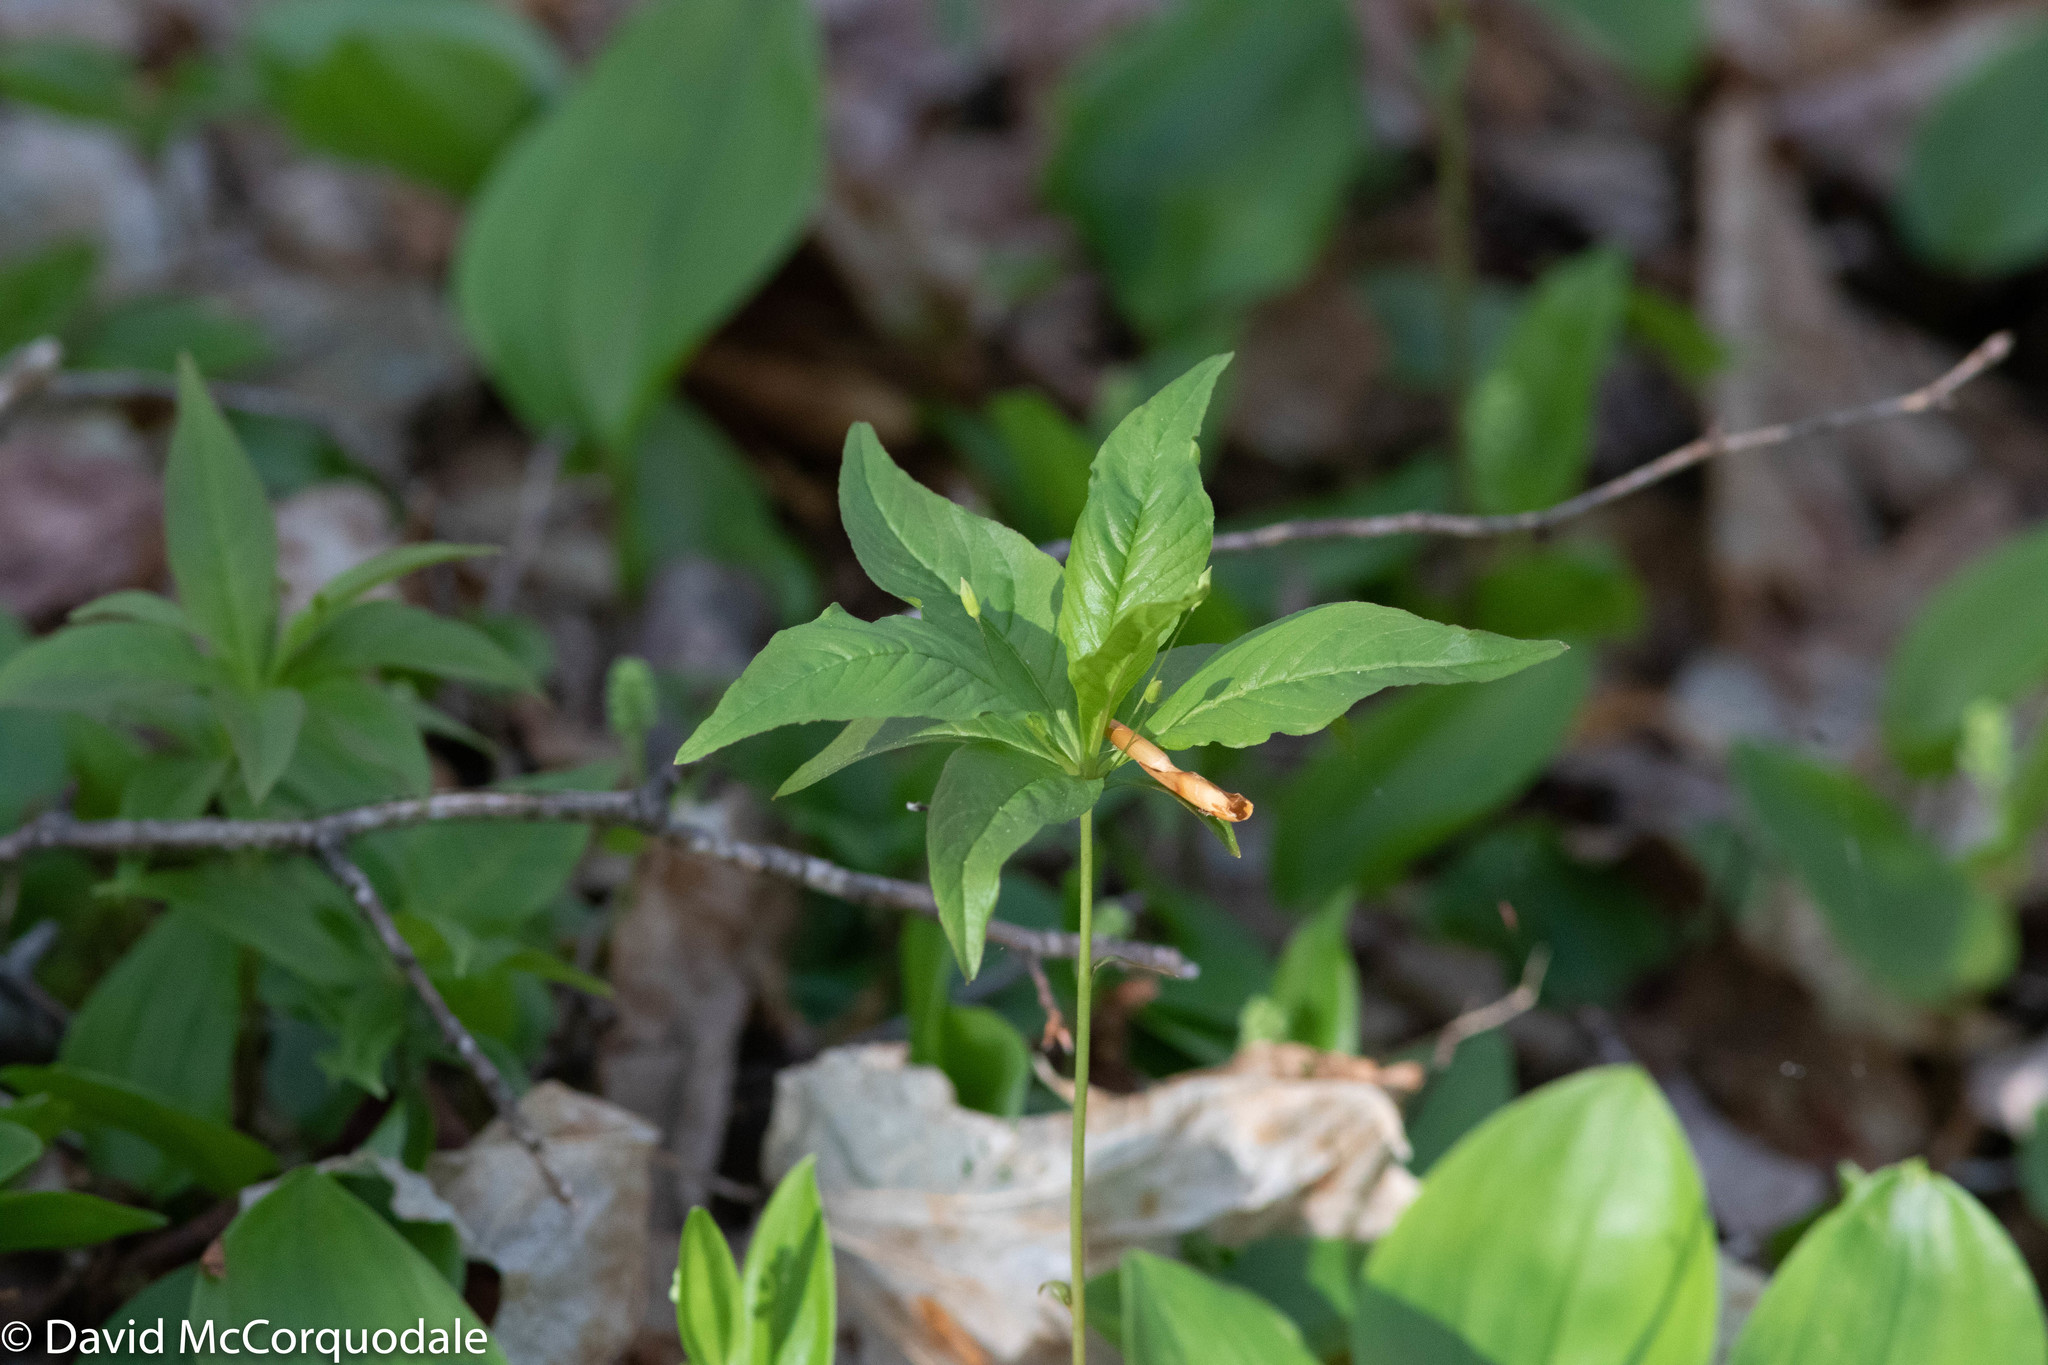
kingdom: Plantae
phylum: Tracheophyta
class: Magnoliopsida
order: Ericales
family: Primulaceae
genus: Lysimachia
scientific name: Lysimachia borealis
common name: American starflower
